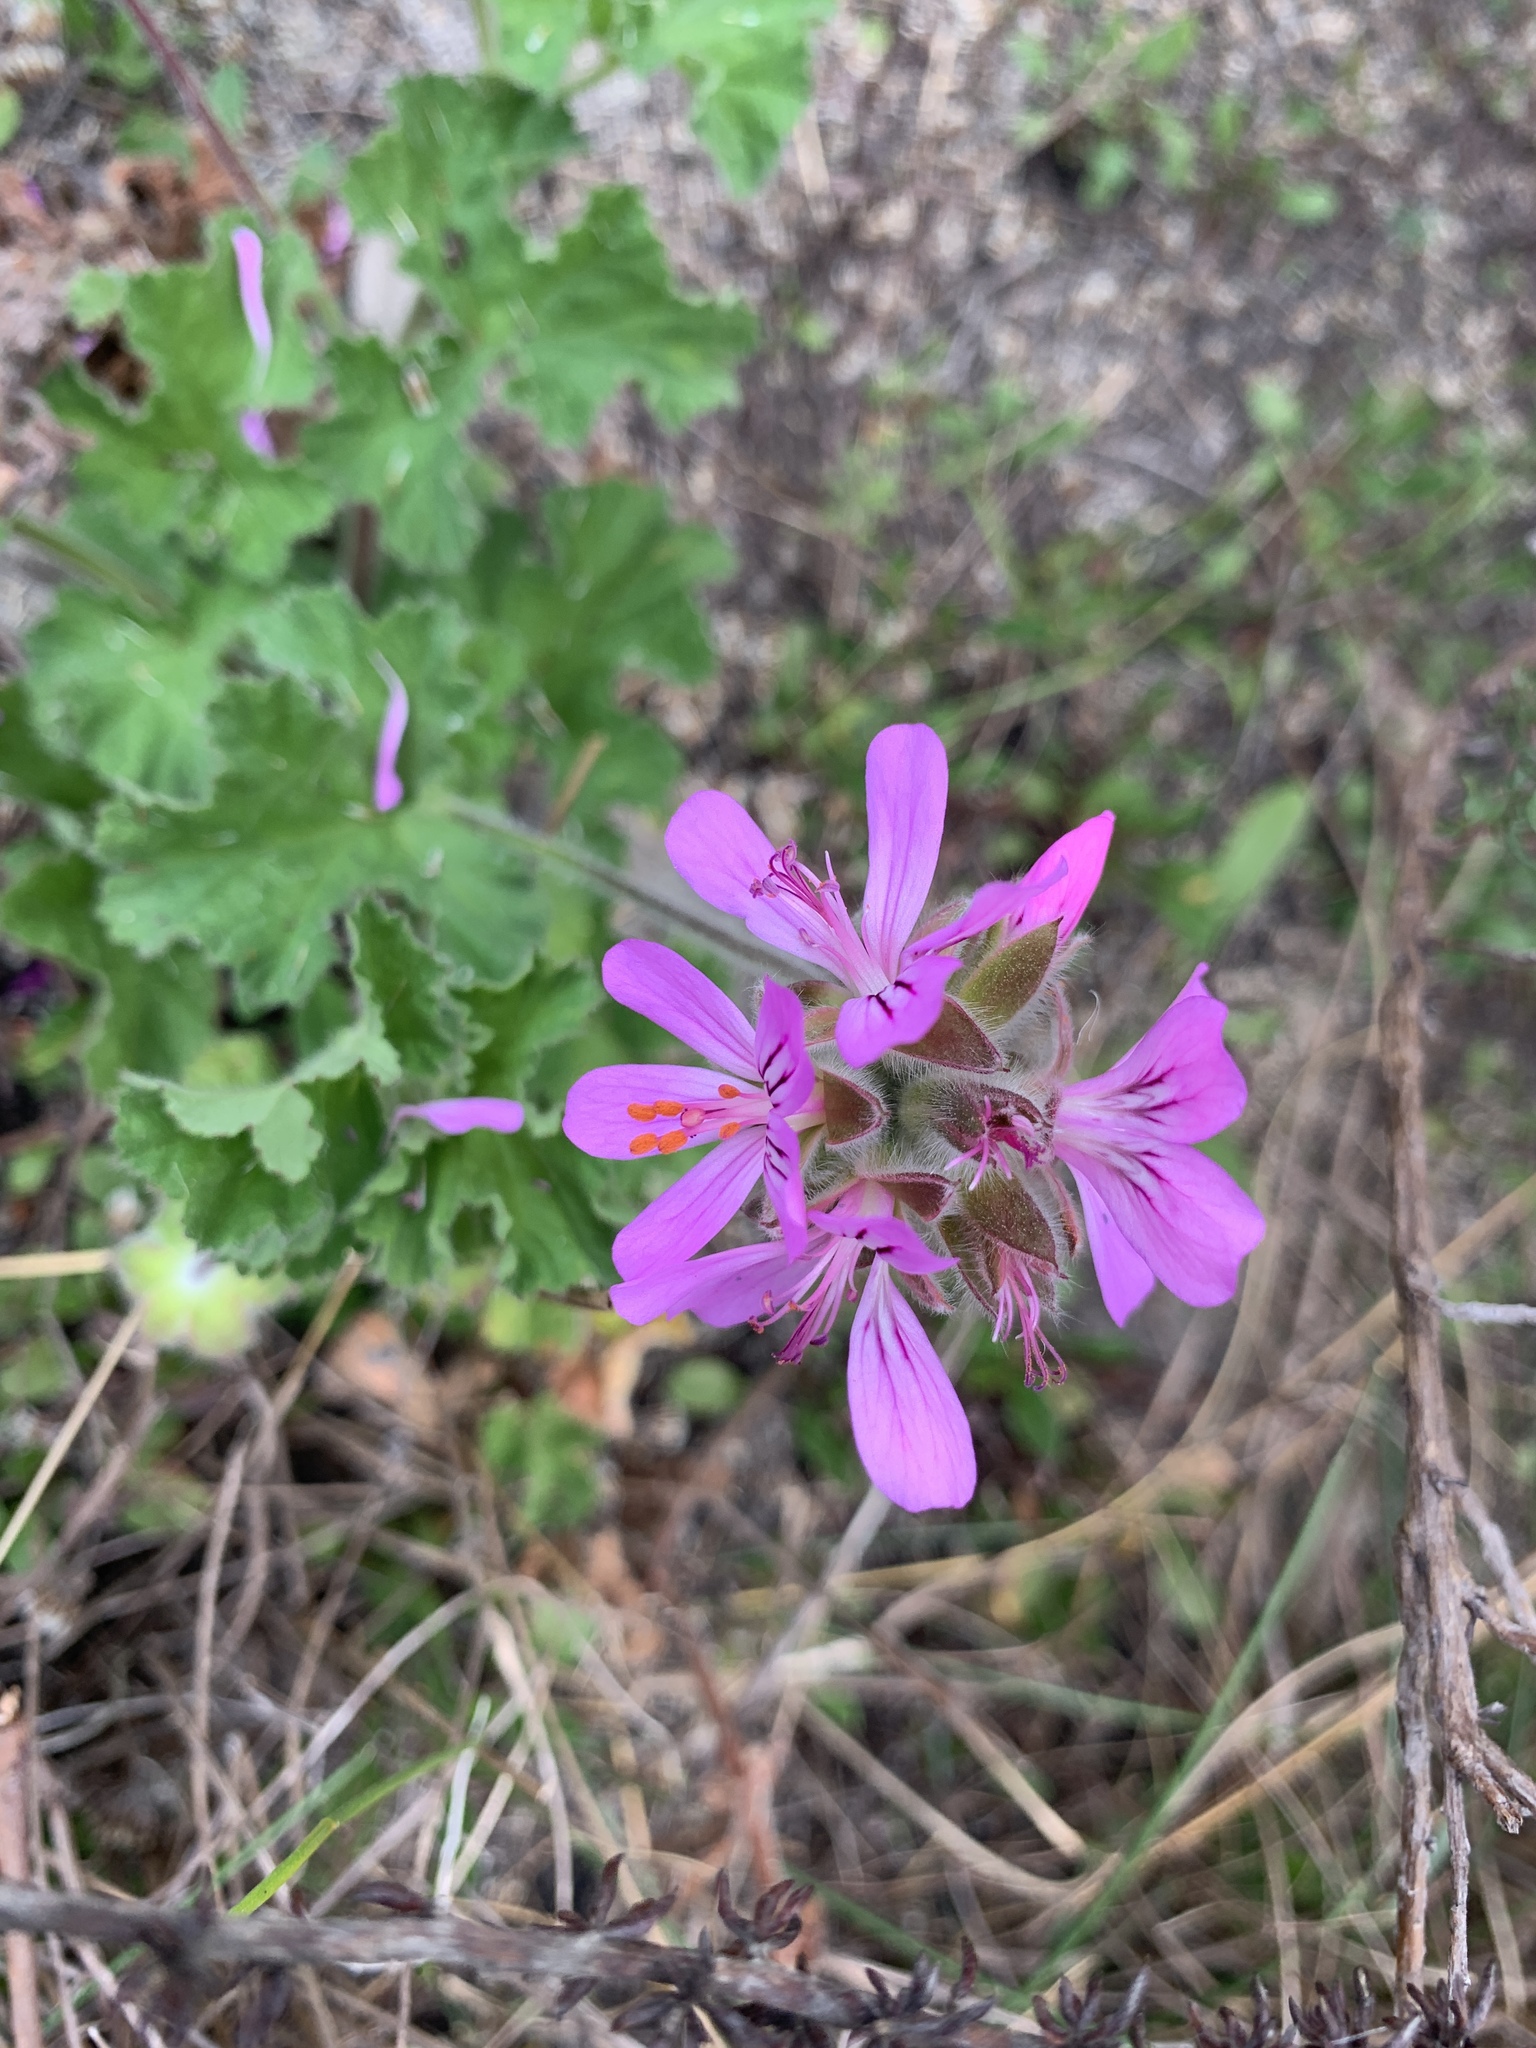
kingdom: Plantae
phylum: Tracheophyta
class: Magnoliopsida
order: Geraniales
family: Geraniaceae
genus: Pelargonium
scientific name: Pelargonium capitatum
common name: Rose scented geranium
